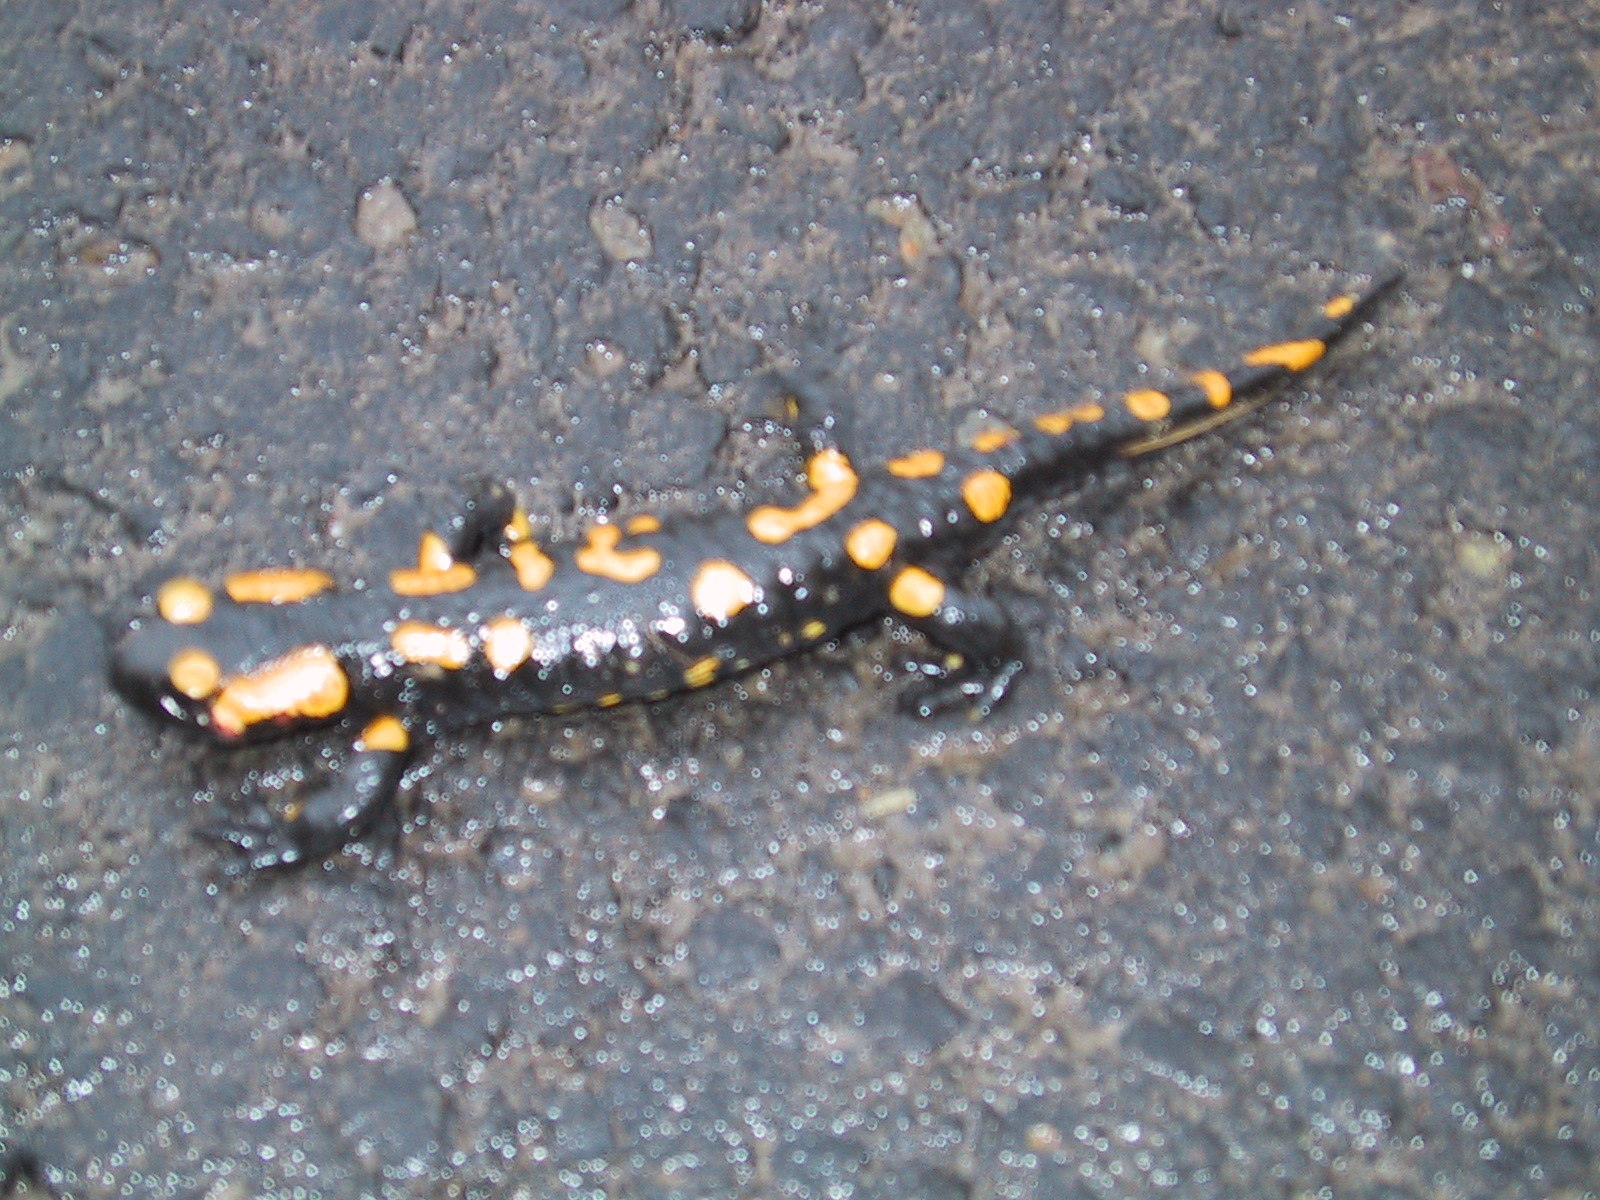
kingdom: Animalia
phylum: Chordata
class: Amphibia
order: Caudata
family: Salamandridae
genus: Salamandra
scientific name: Salamandra salamandra
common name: Fire salamander
